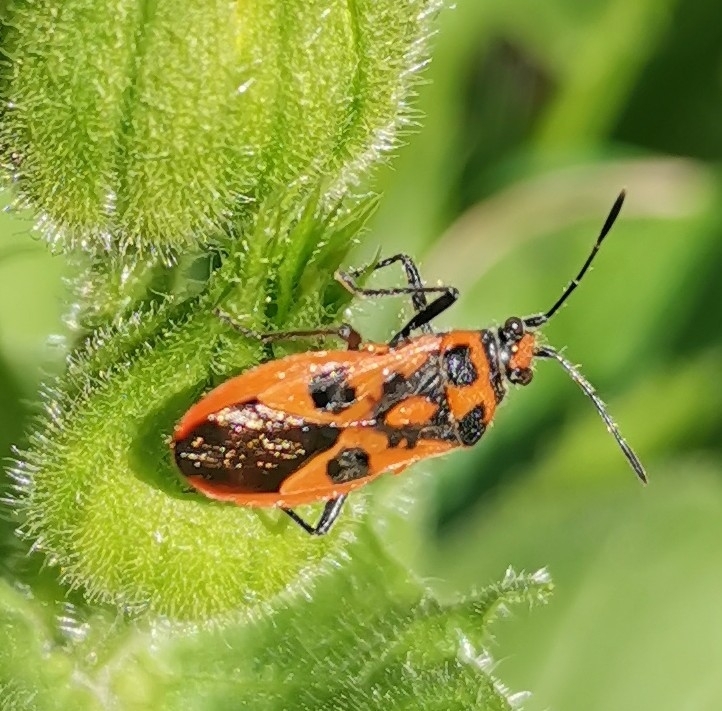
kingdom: Animalia
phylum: Arthropoda
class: Insecta
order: Hemiptera
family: Rhopalidae
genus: Corizus
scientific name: Corizus hyoscyami
